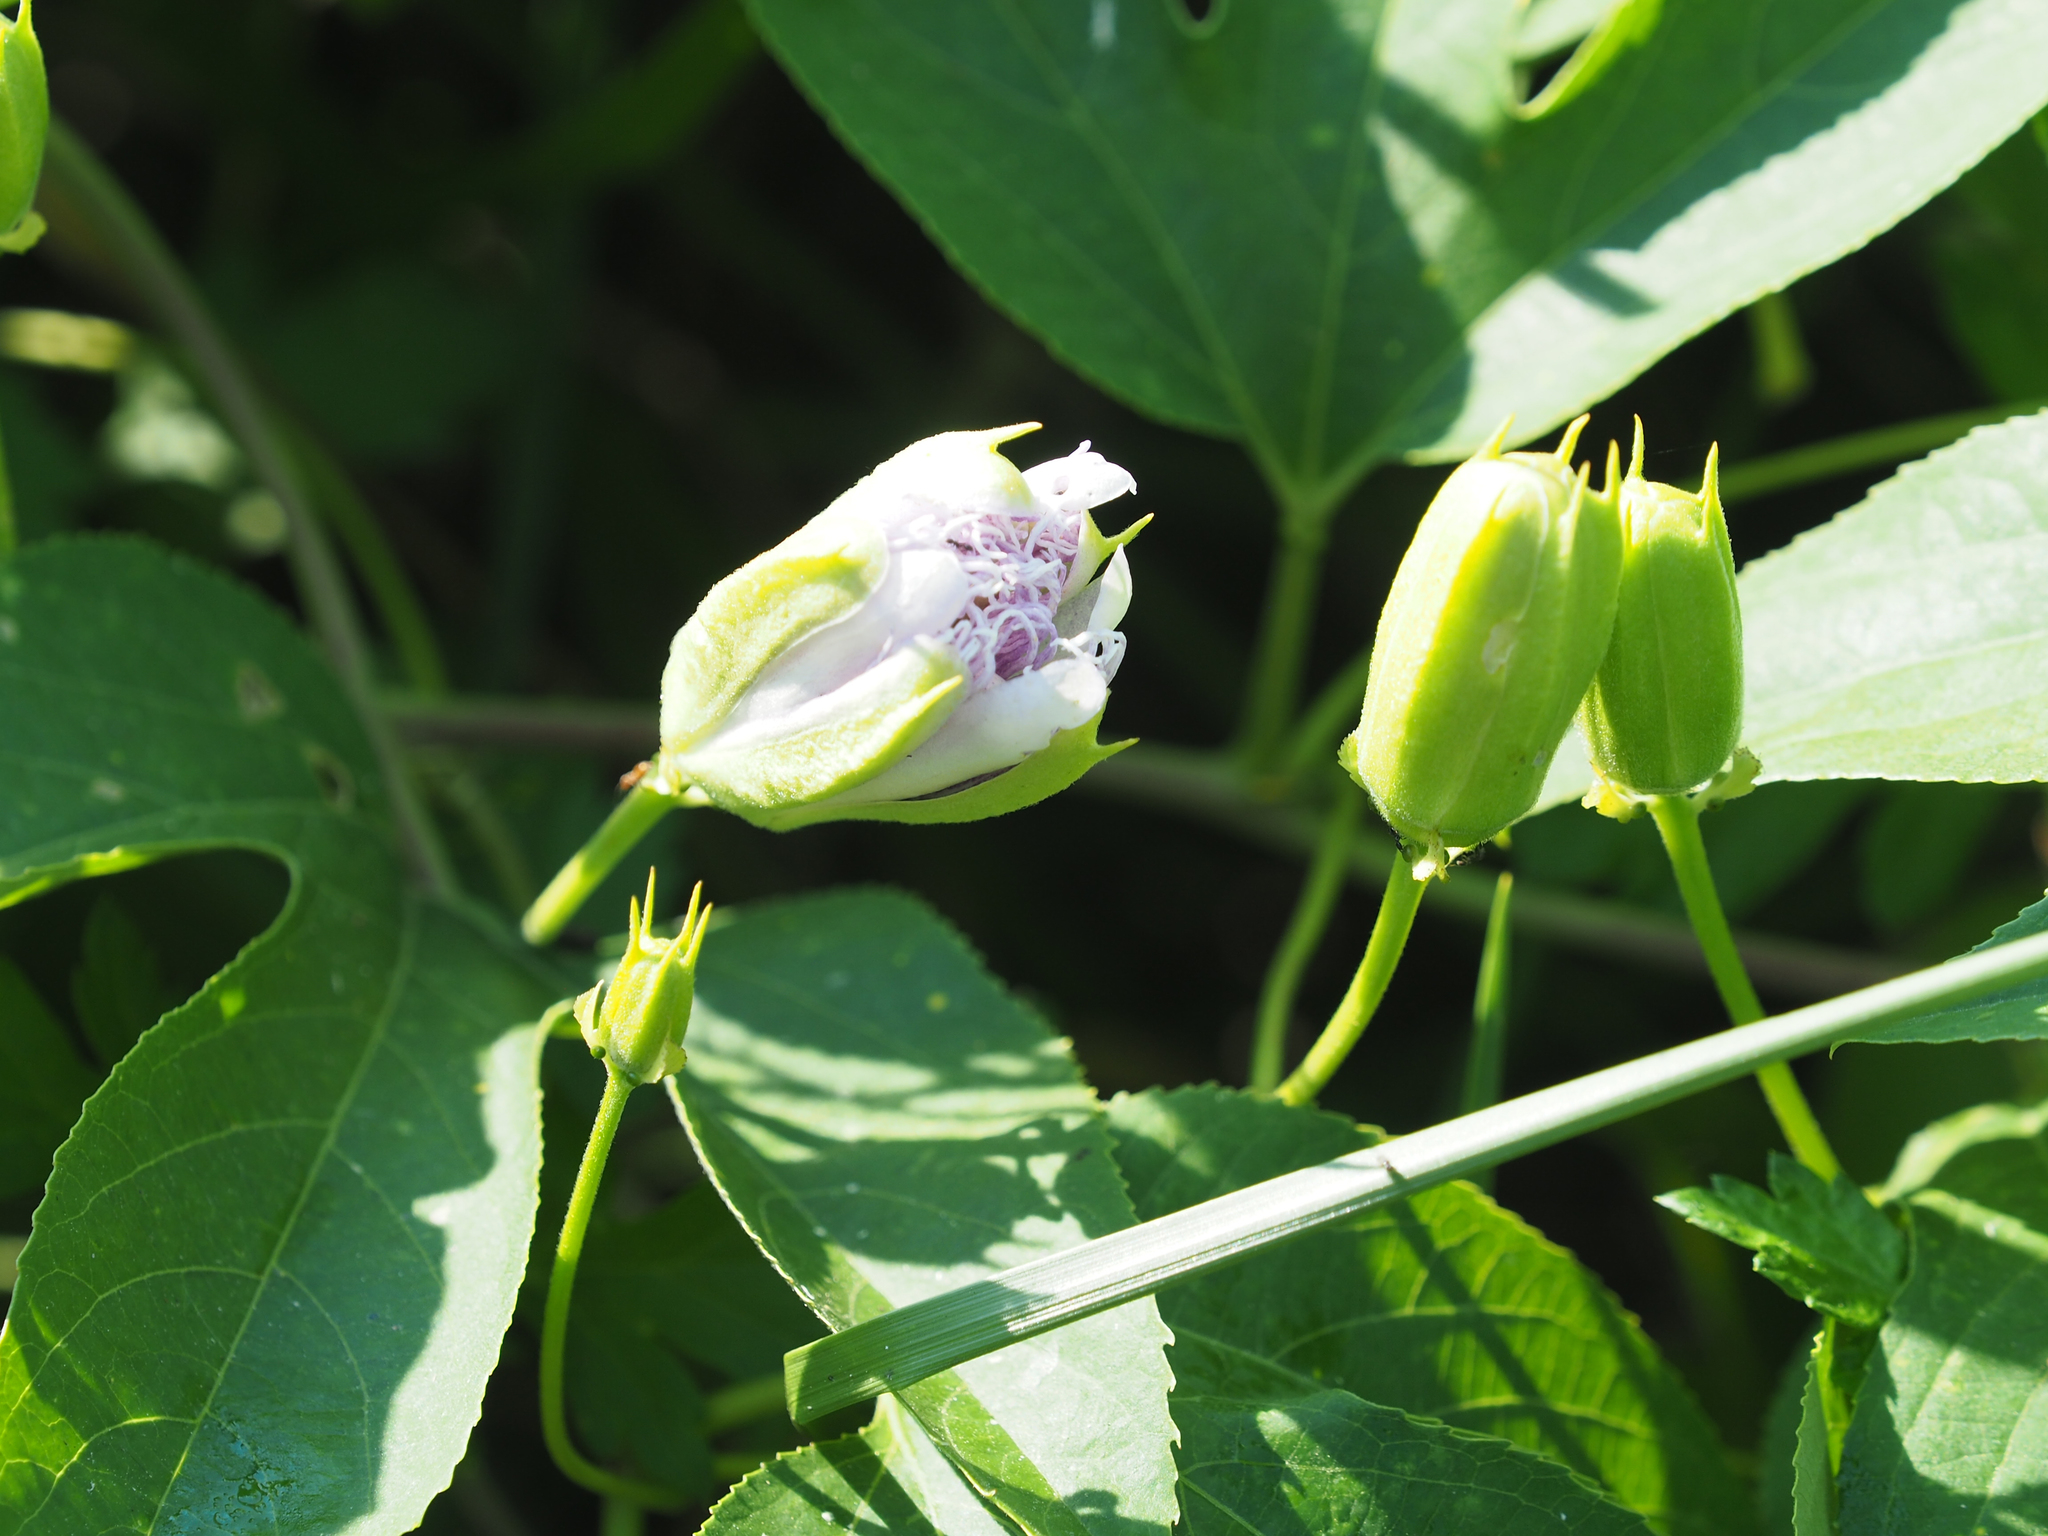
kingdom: Plantae
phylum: Tracheophyta
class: Magnoliopsida
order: Malpighiales
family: Passifloraceae
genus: Passiflora
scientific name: Passiflora incarnata
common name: Apricot-vine
